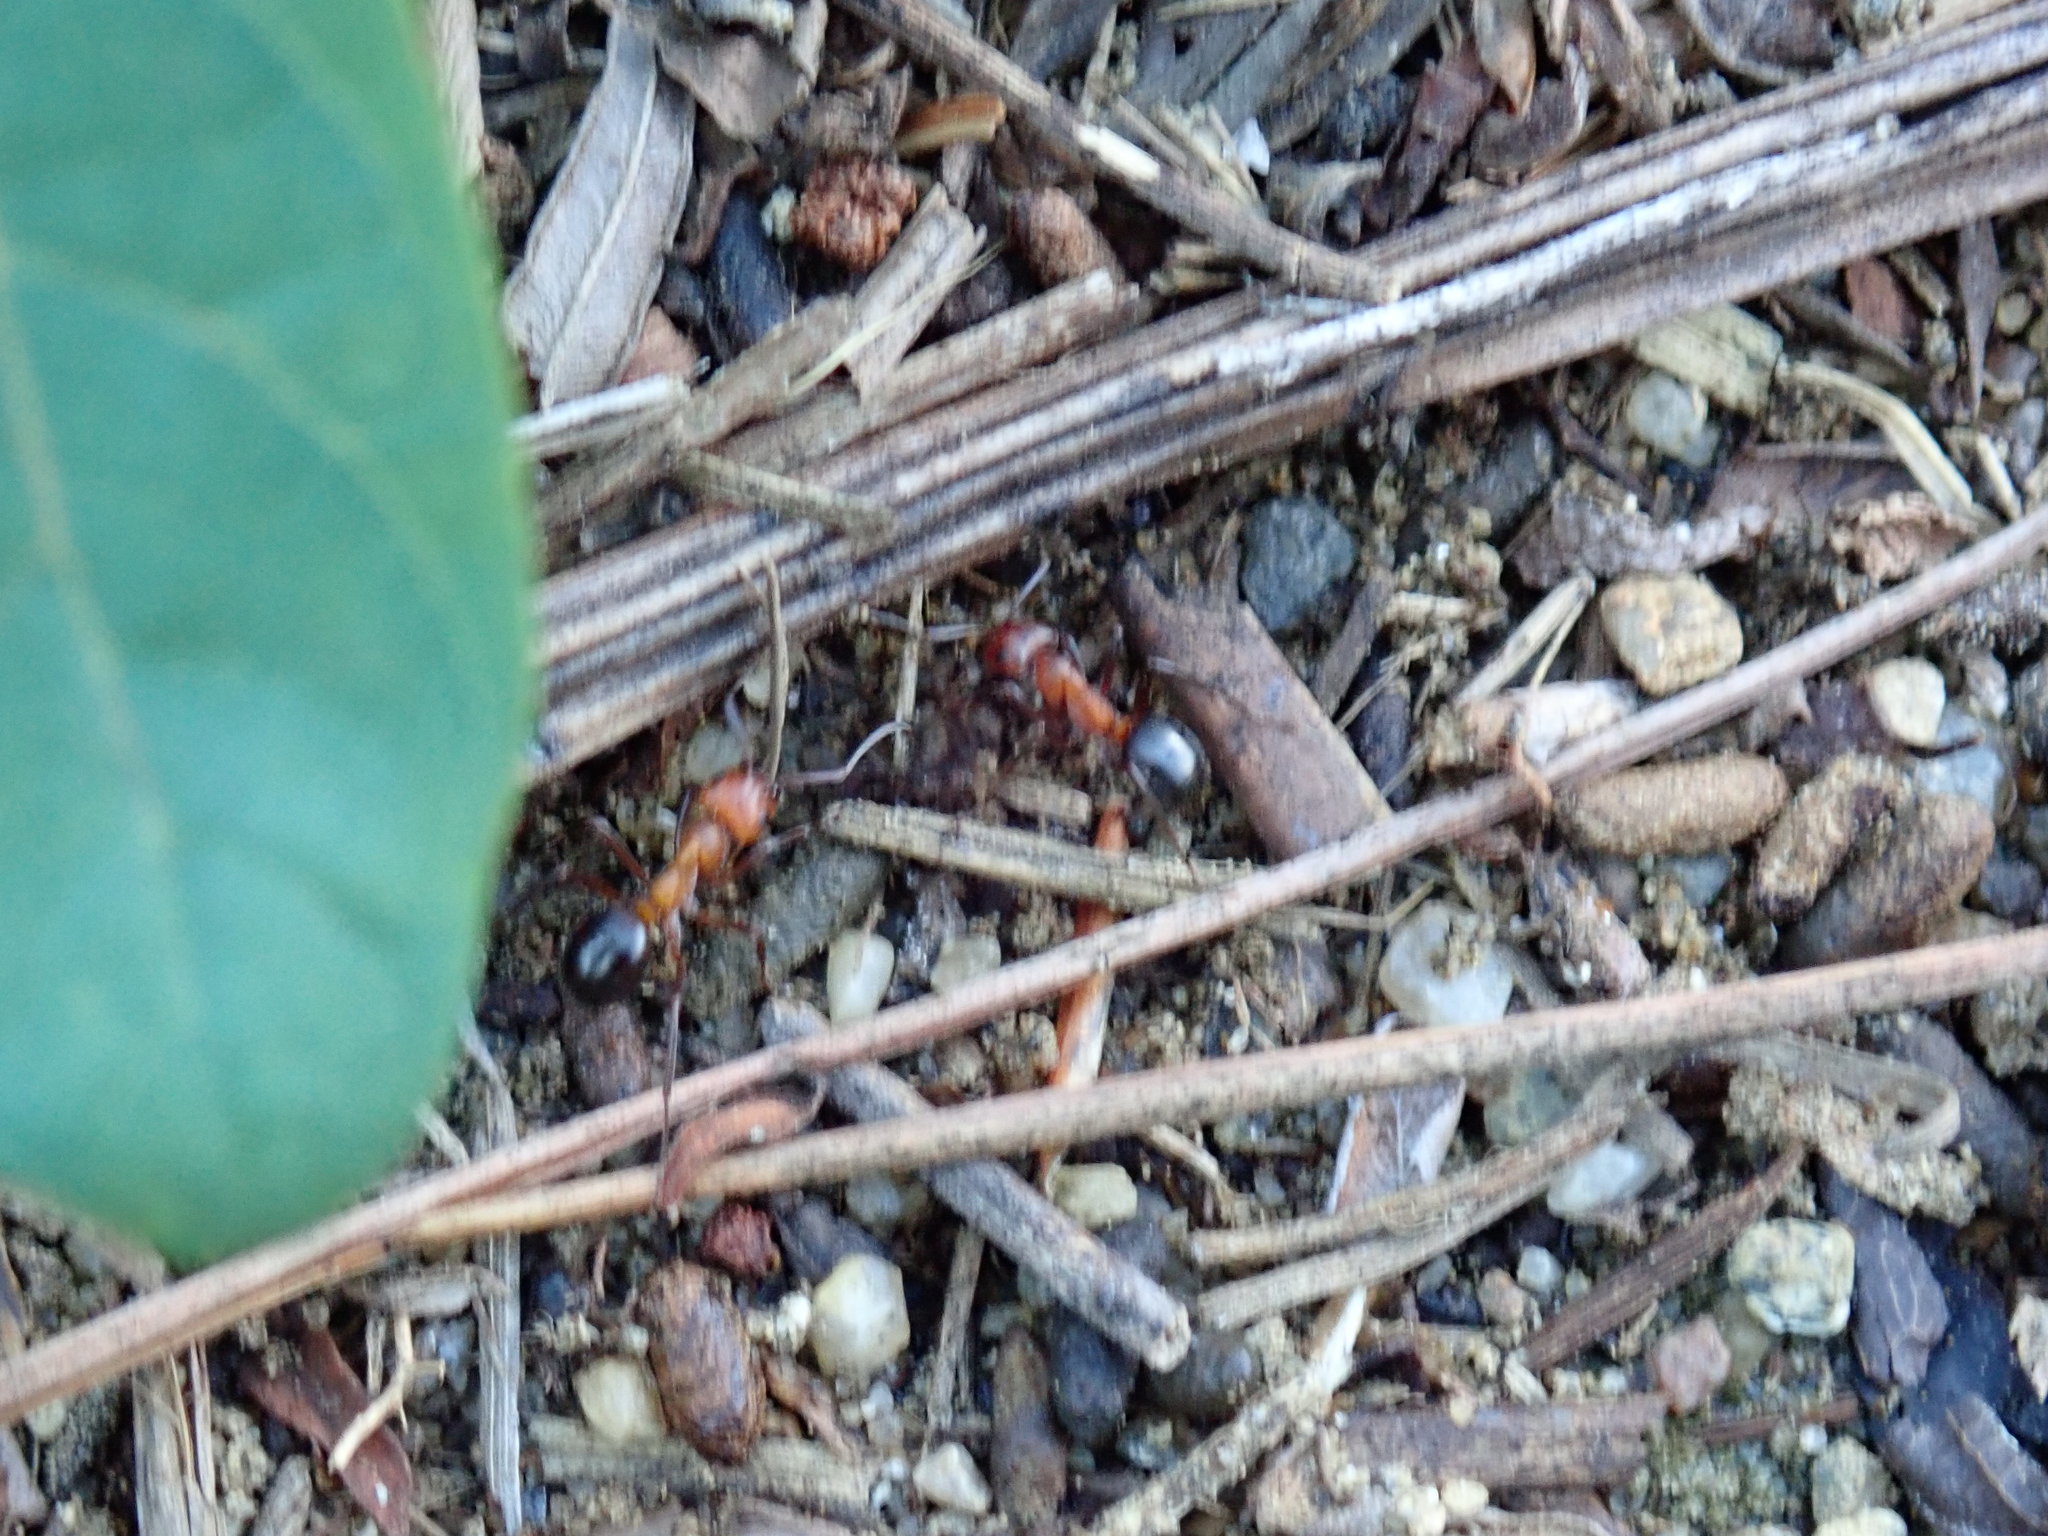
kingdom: Animalia
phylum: Arthropoda
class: Insecta
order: Hymenoptera
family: Formicidae
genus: Formica
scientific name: Formica exsectoides
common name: Allegheny mound ant
